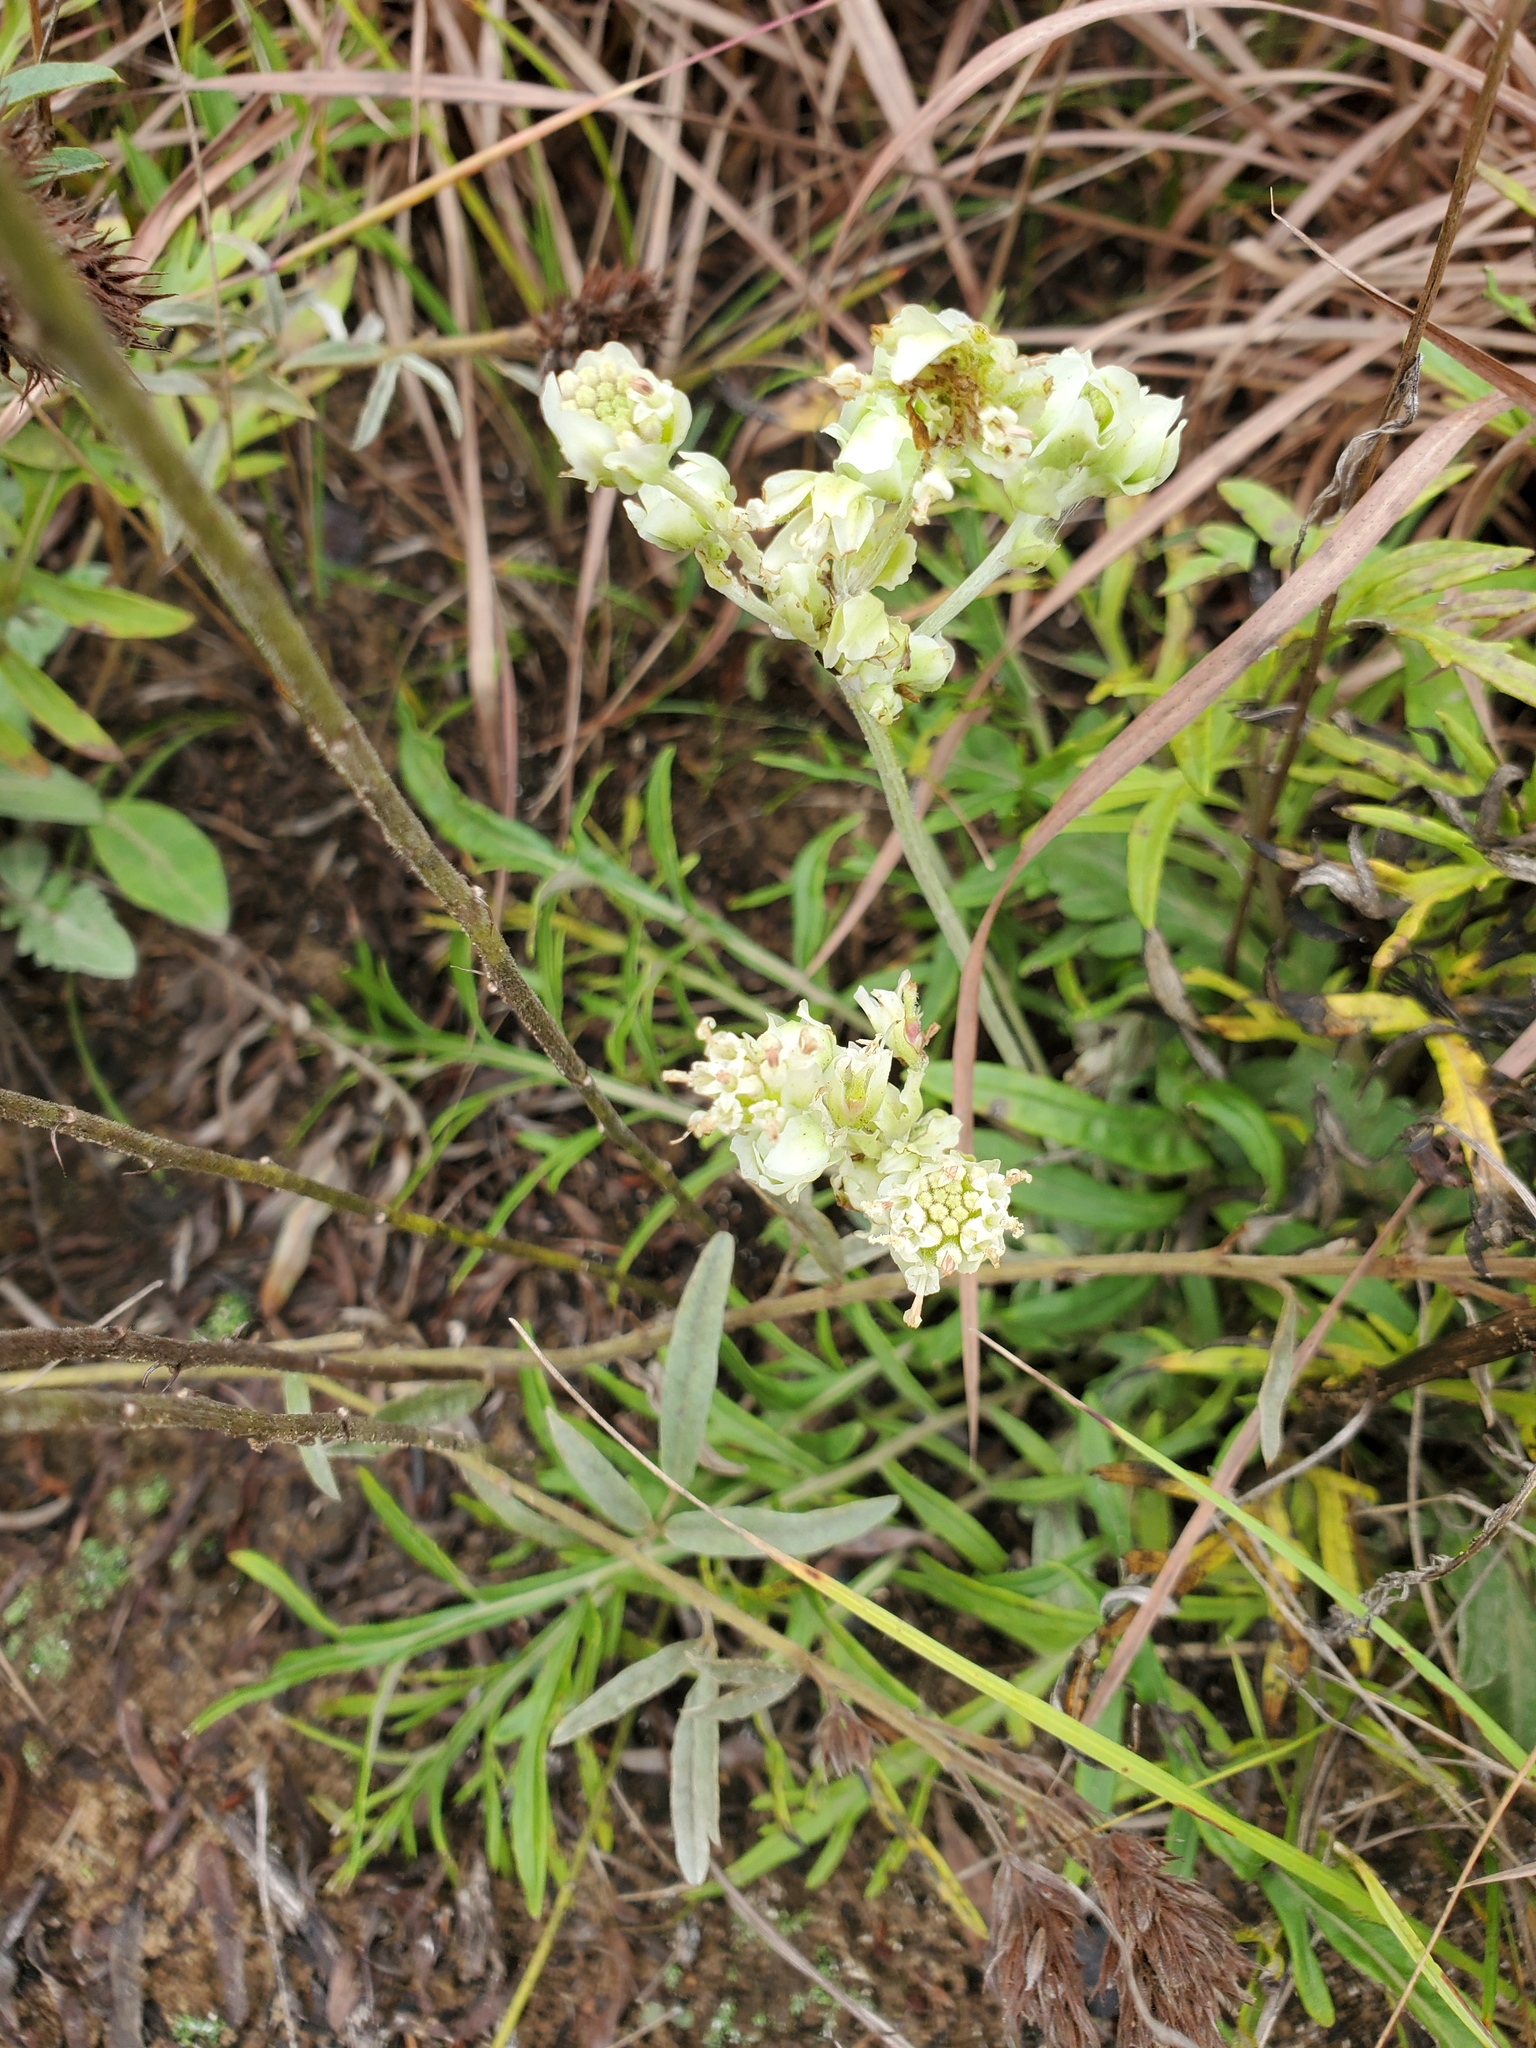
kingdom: Plantae
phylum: Tracheophyta
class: Magnoliopsida
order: Asterales
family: Asteraceae
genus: Hymenopappus
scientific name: Hymenopappus scabiosaeus
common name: Carolina woollywhite
